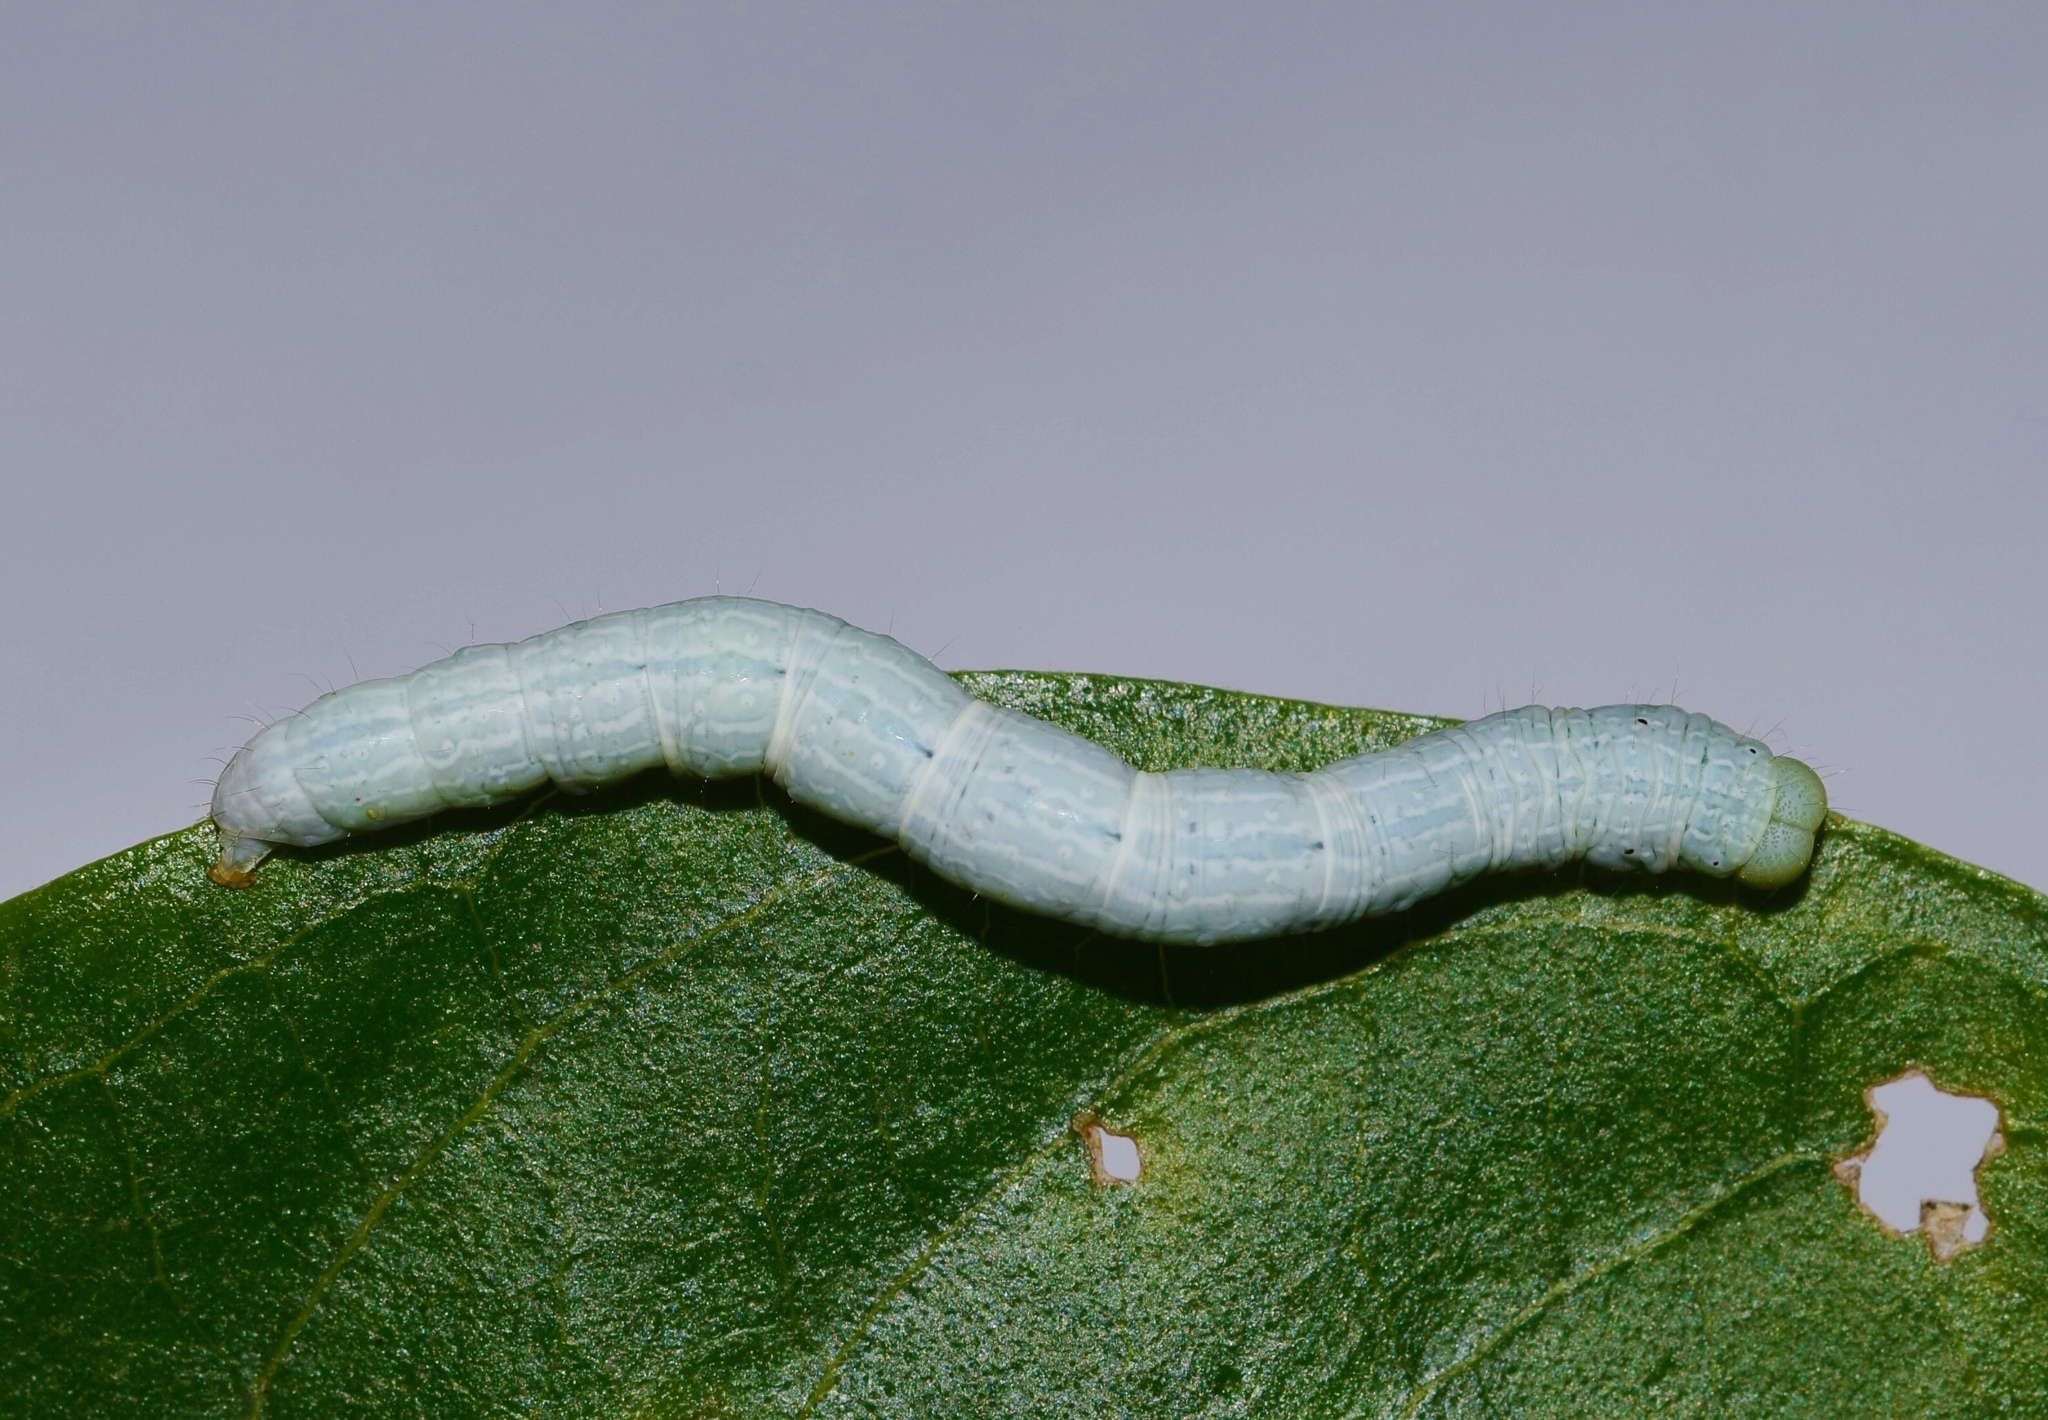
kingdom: Animalia
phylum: Arthropoda
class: Insecta
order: Lepidoptera
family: Erebidae
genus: Plecoptera
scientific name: Plecoptera punctilineata
